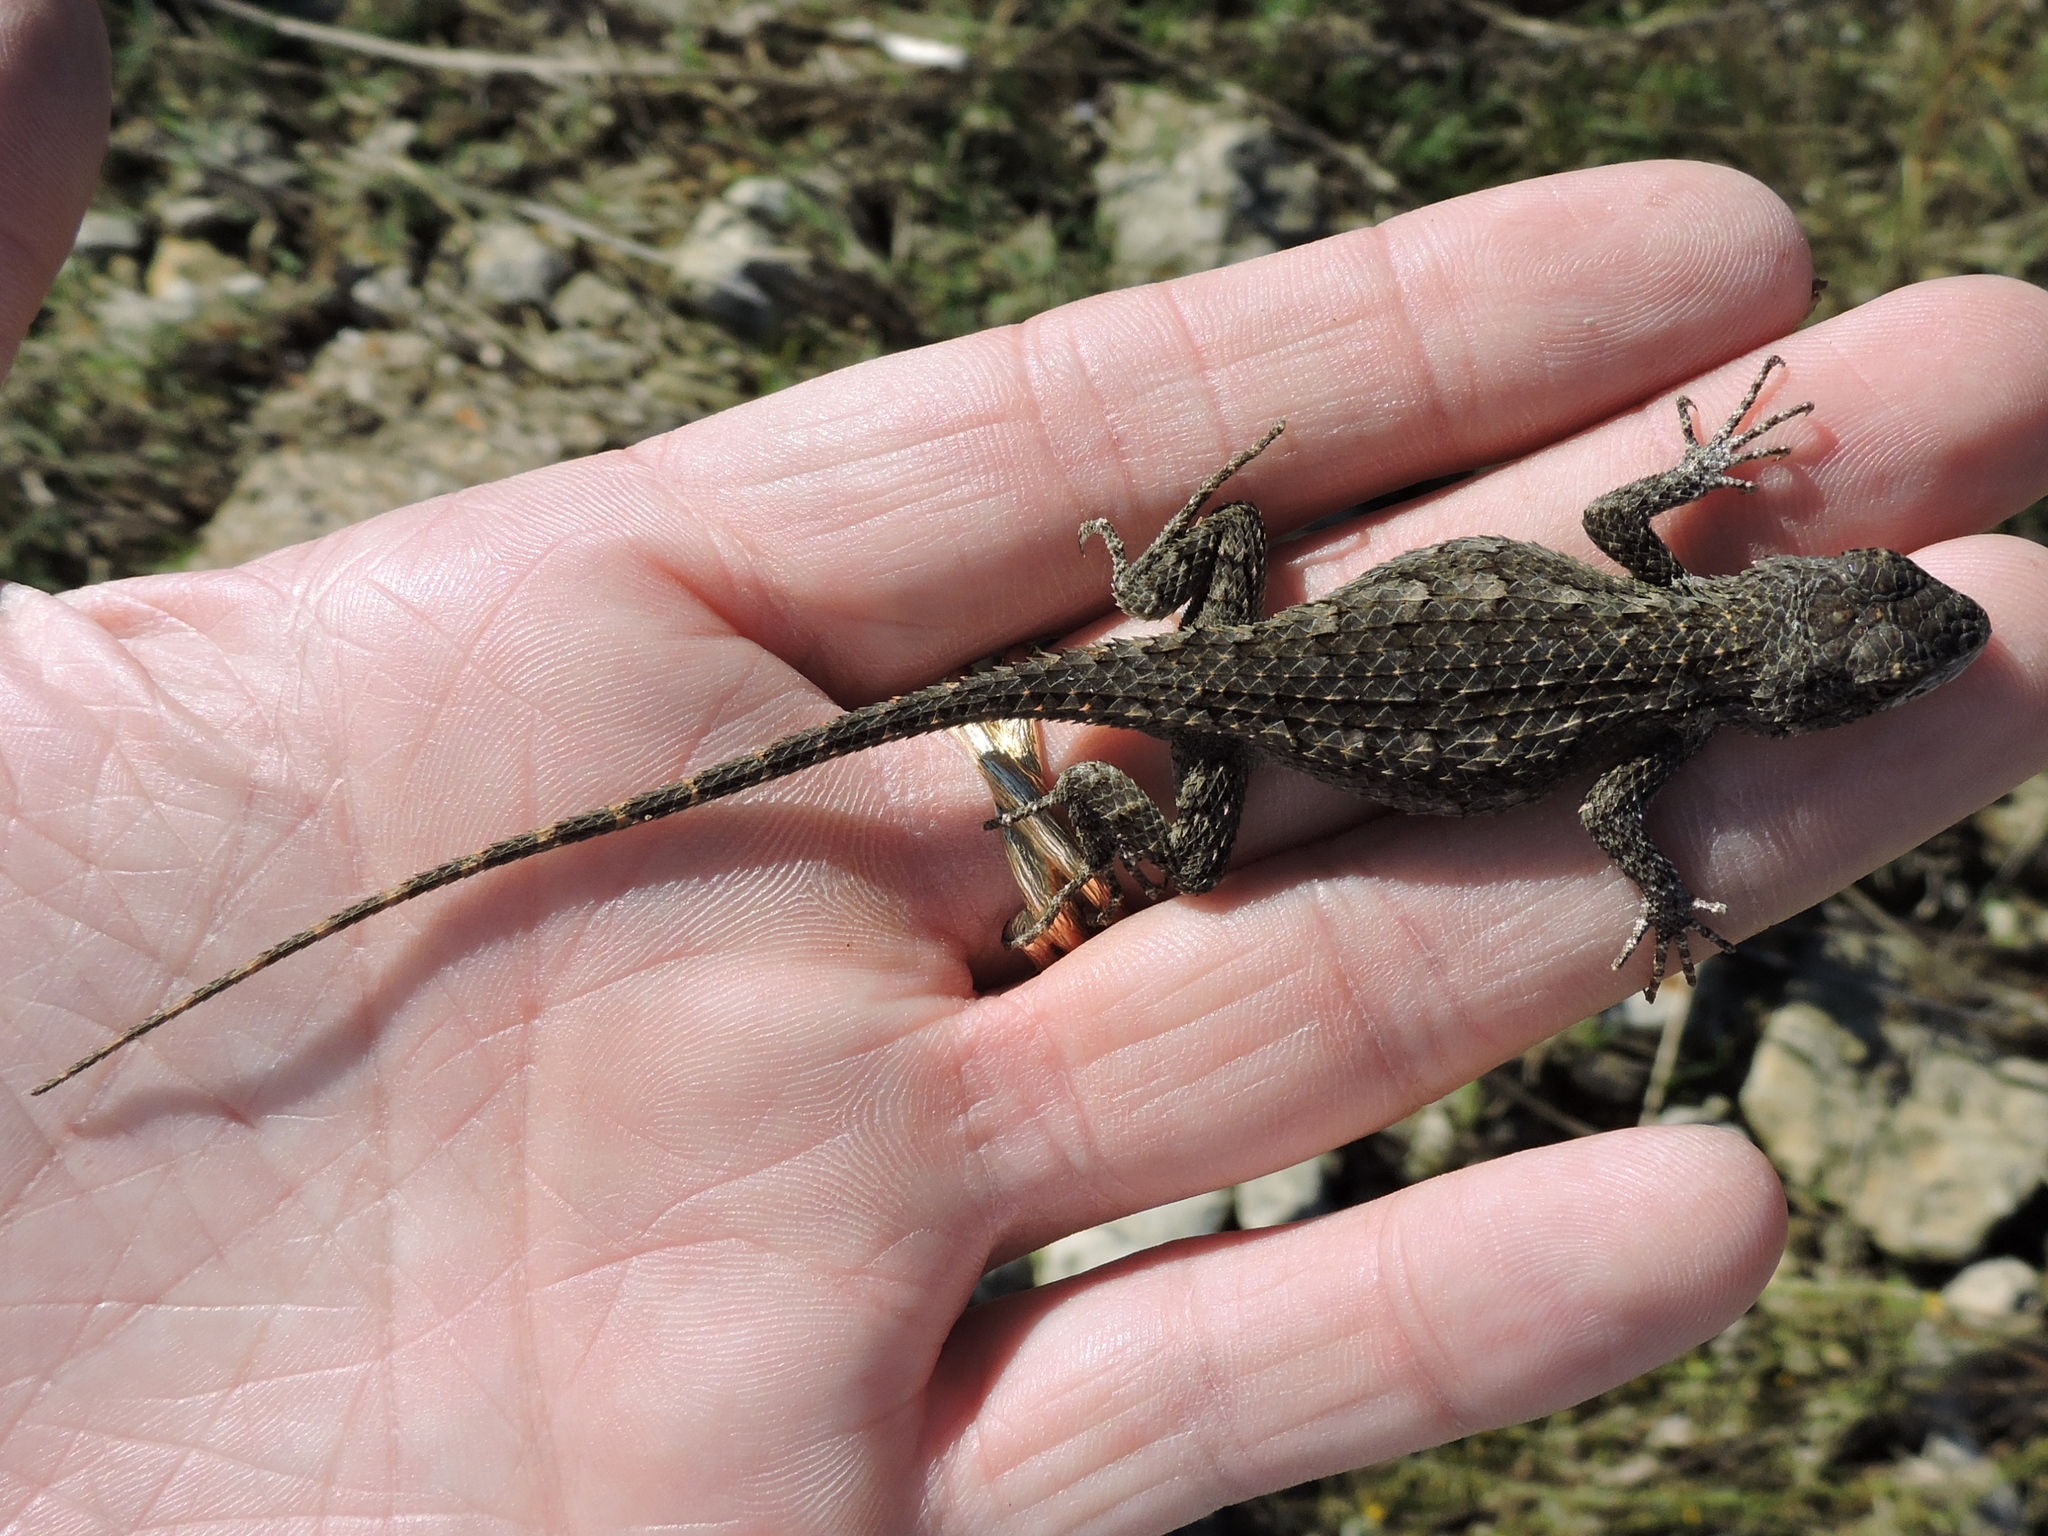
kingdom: Animalia
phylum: Chordata
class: Squamata
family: Phrynosomatidae
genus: Sceloporus
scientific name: Sceloporus olivaceus
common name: Texas spiny lizard
